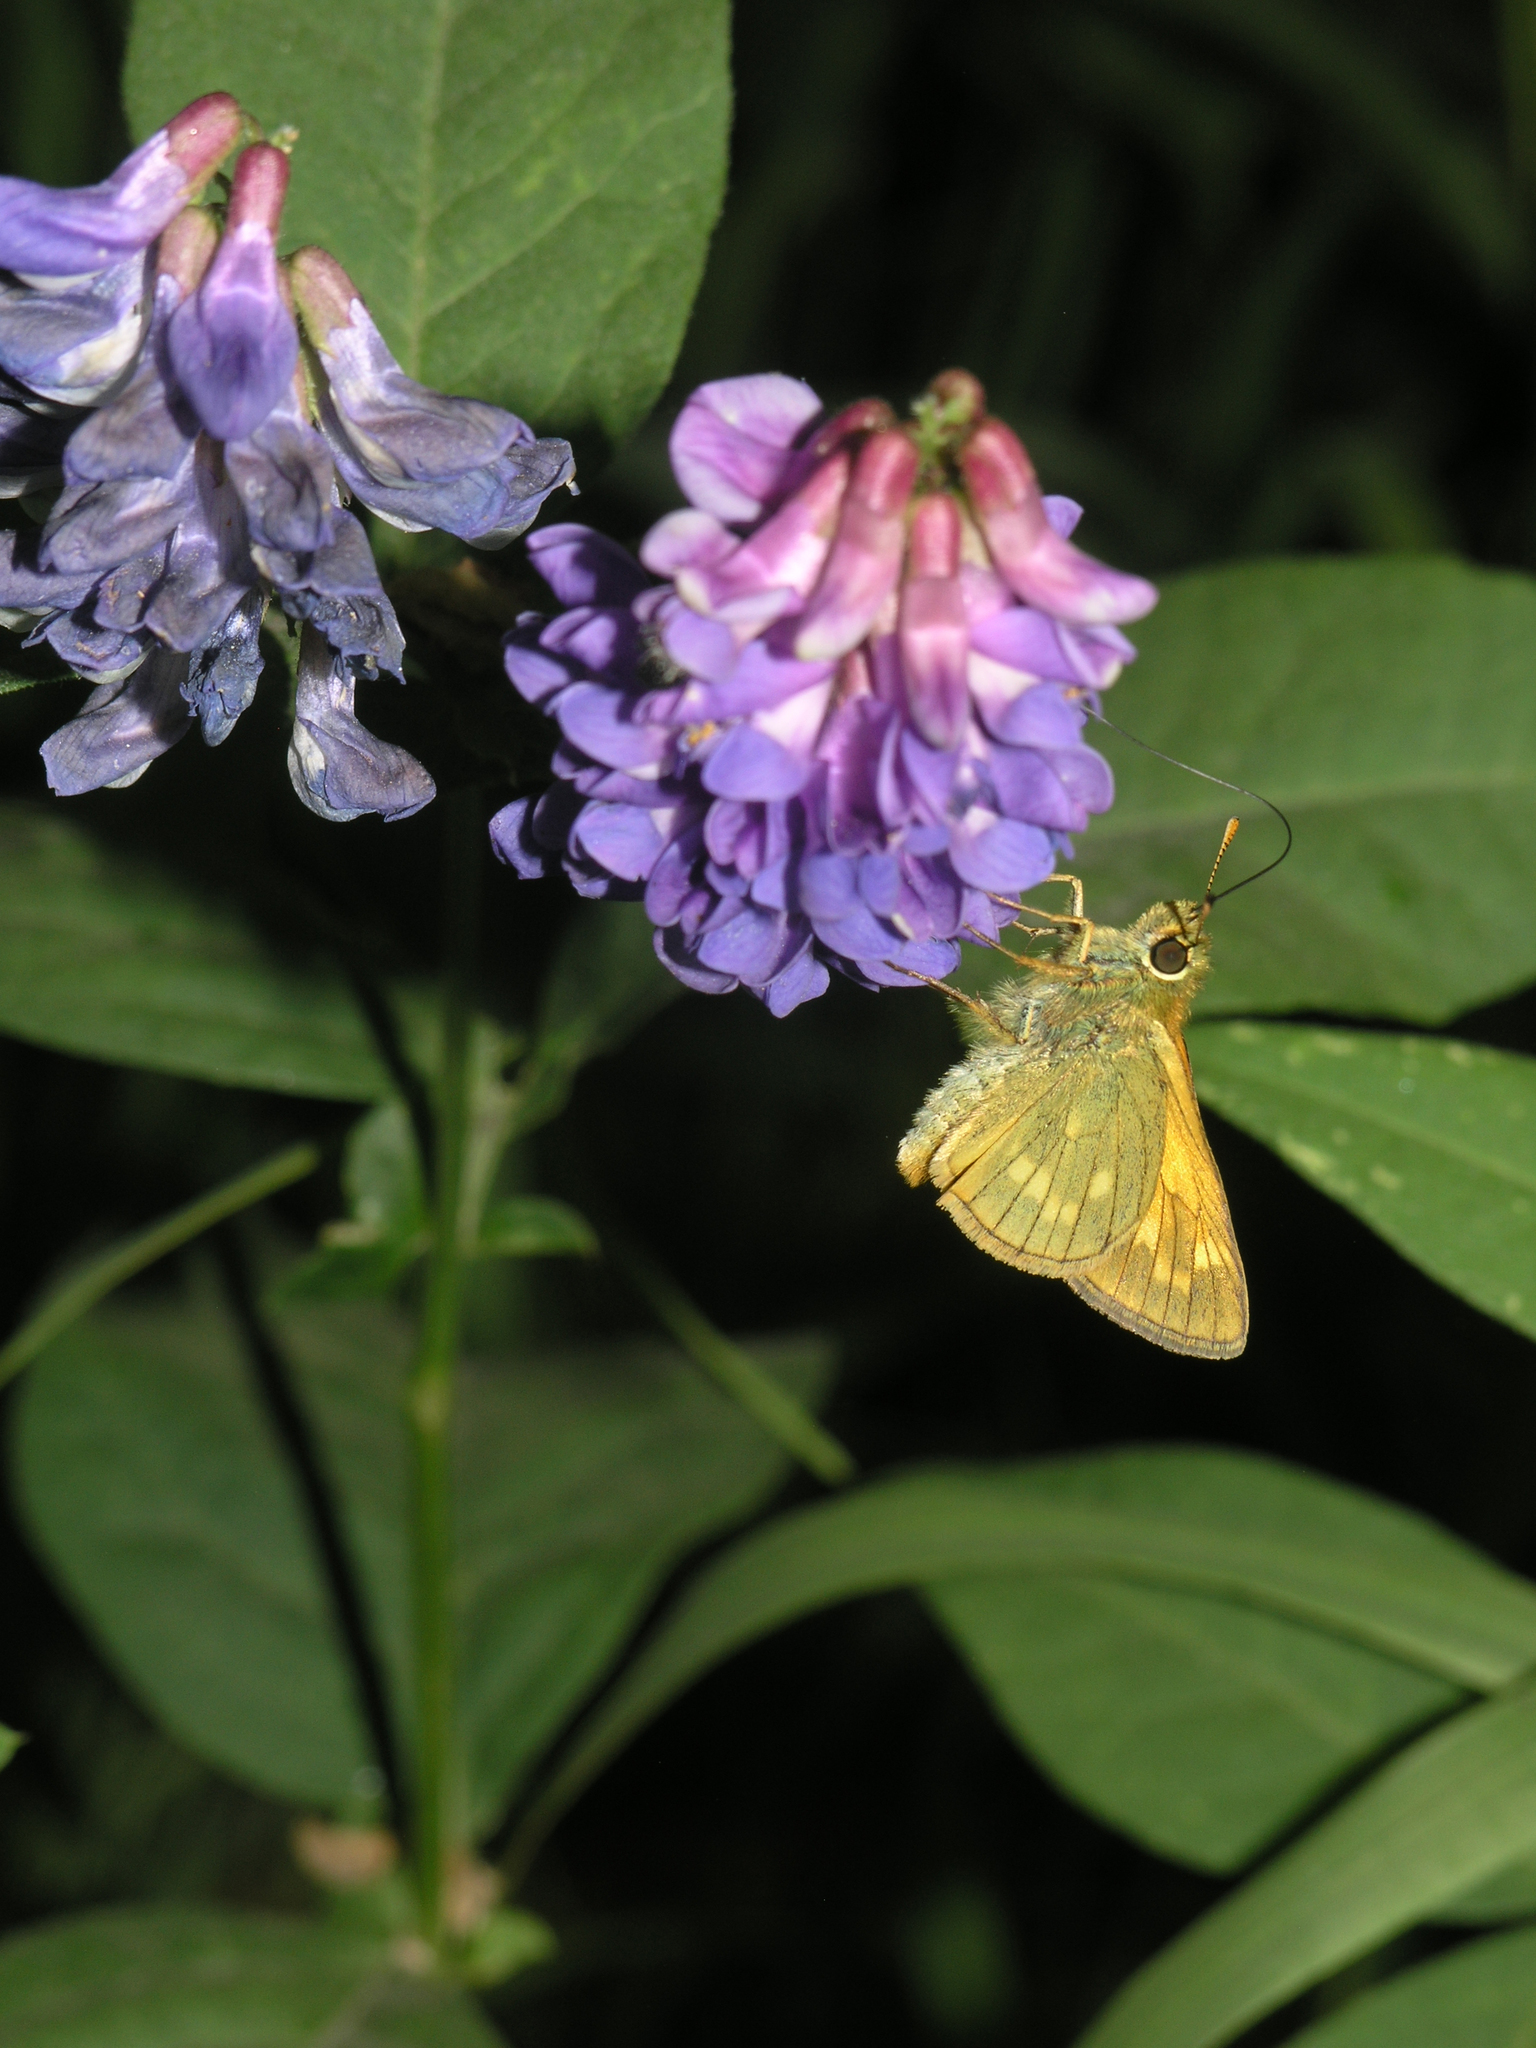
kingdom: Plantae
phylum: Tracheophyta
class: Magnoliopsida
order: Fabales
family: Fabaceae
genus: Vicia
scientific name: Vicia unijuga
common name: Two-leaf vetch
